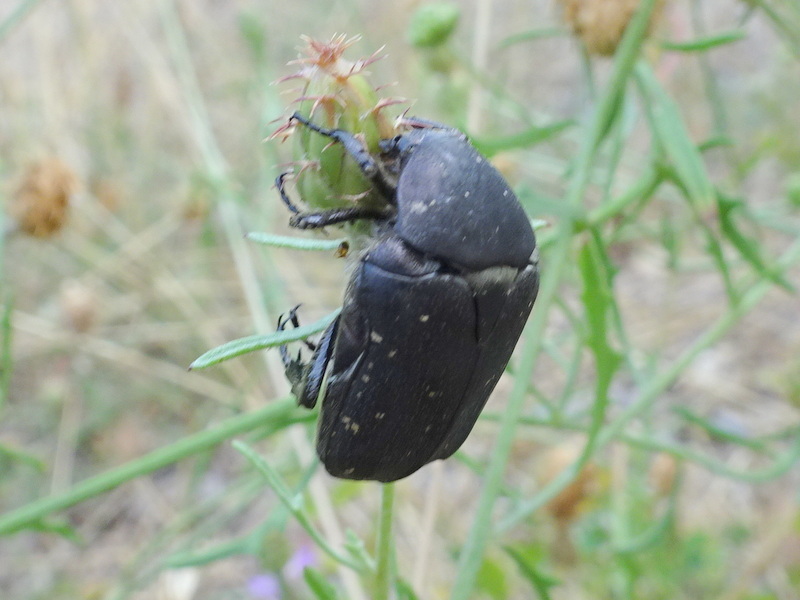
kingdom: Animalia
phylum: Arthropoda
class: Insecta
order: Coleoptera
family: Scarabaeidae
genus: Protaetia
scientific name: Protaetia morio
